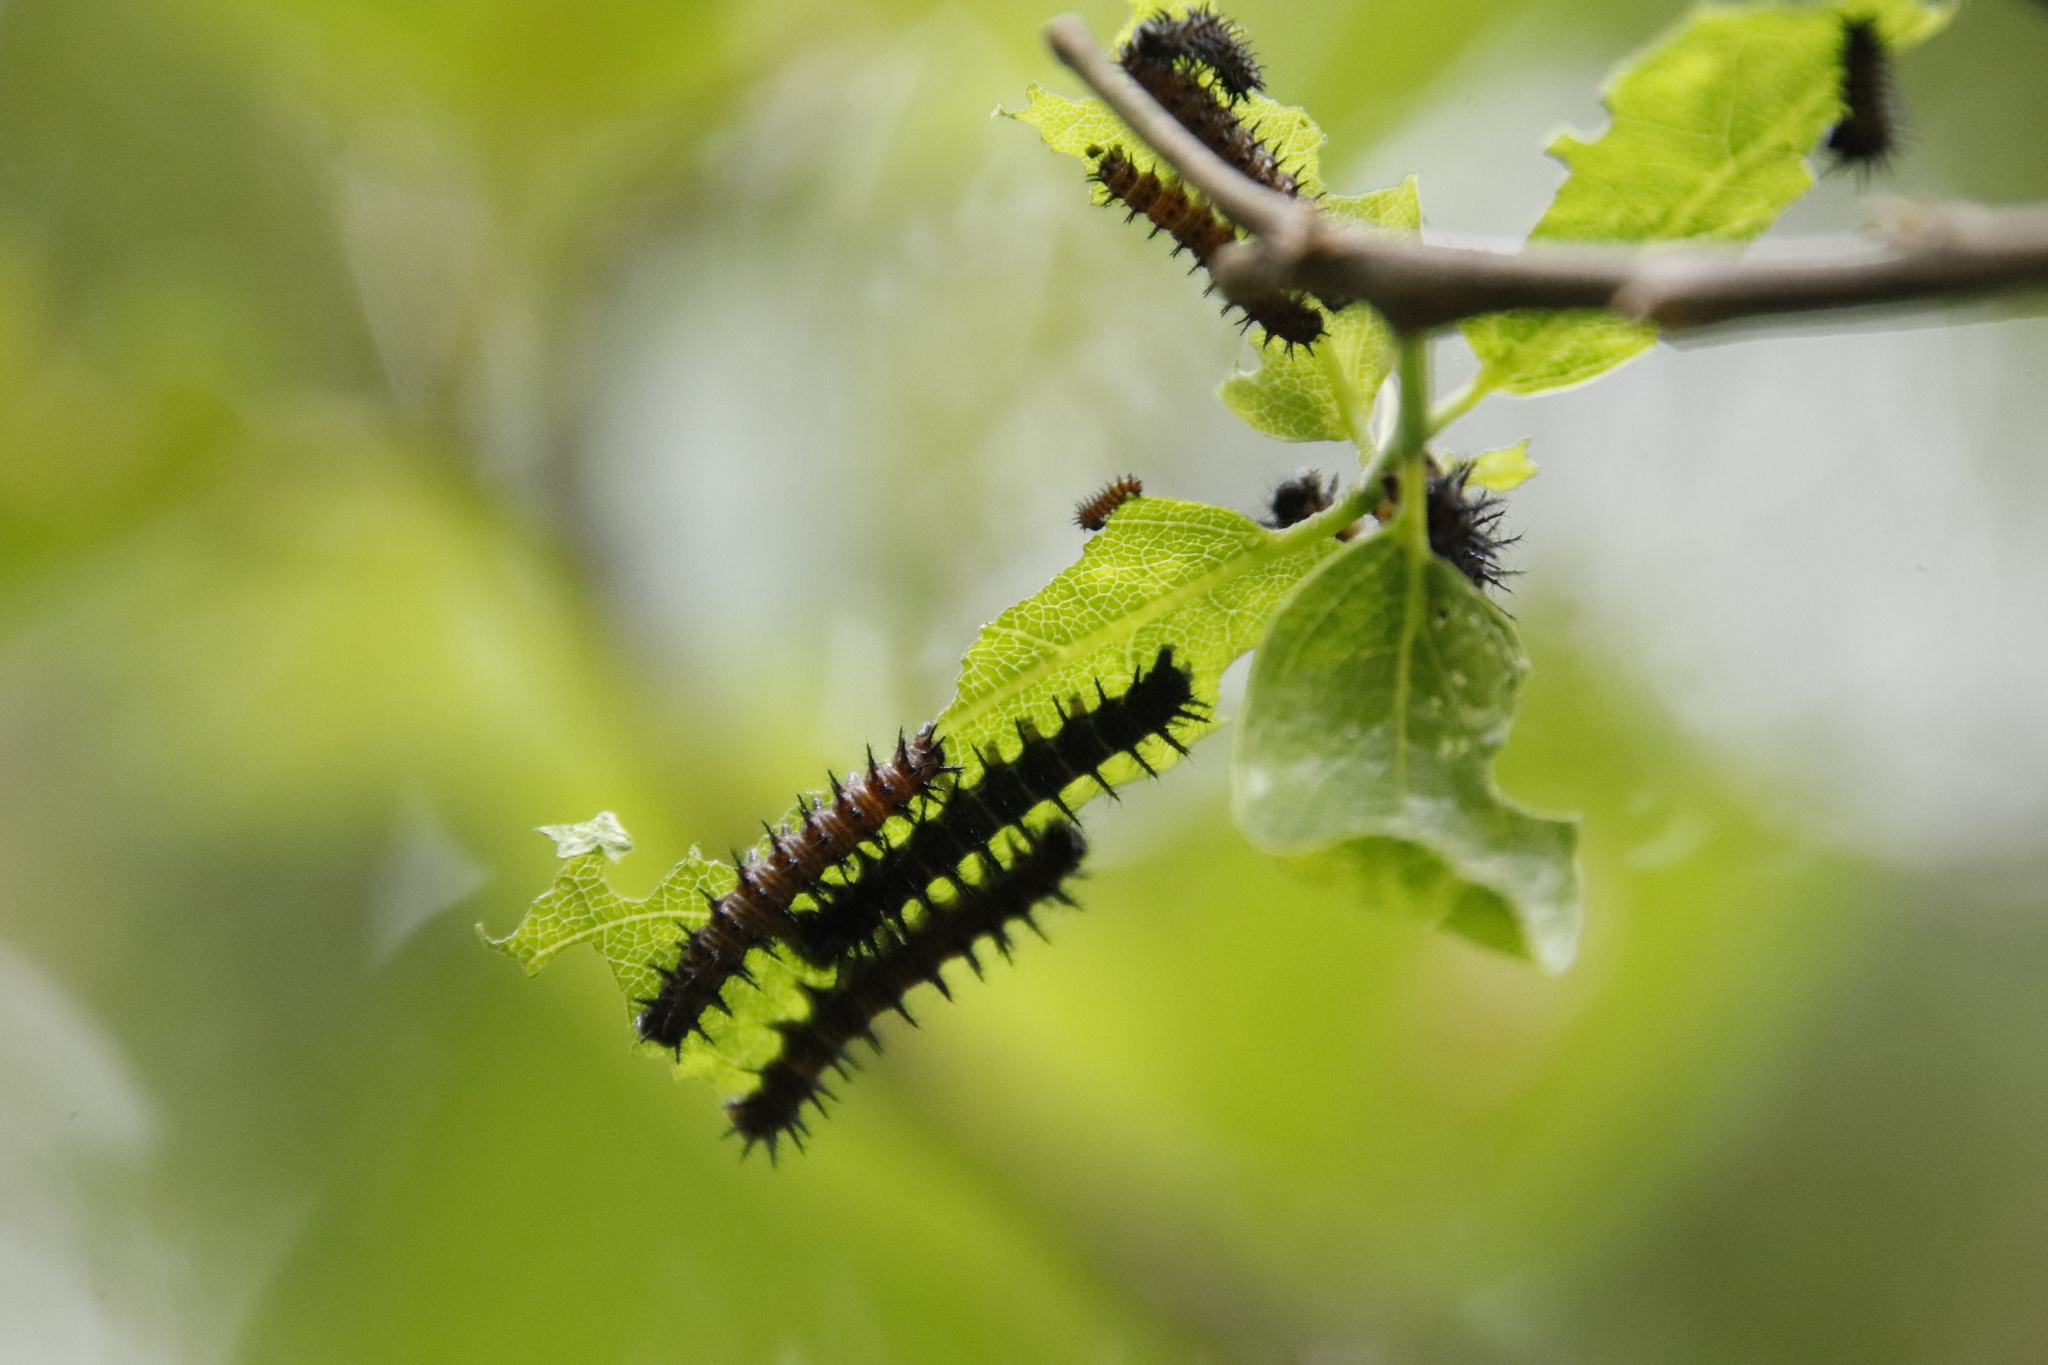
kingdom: Animalia
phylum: Arthropoda
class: Insecta
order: Lepidoptera
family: Nymphalidae
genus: Acraea
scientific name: Acraea horta
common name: Garden acraea
